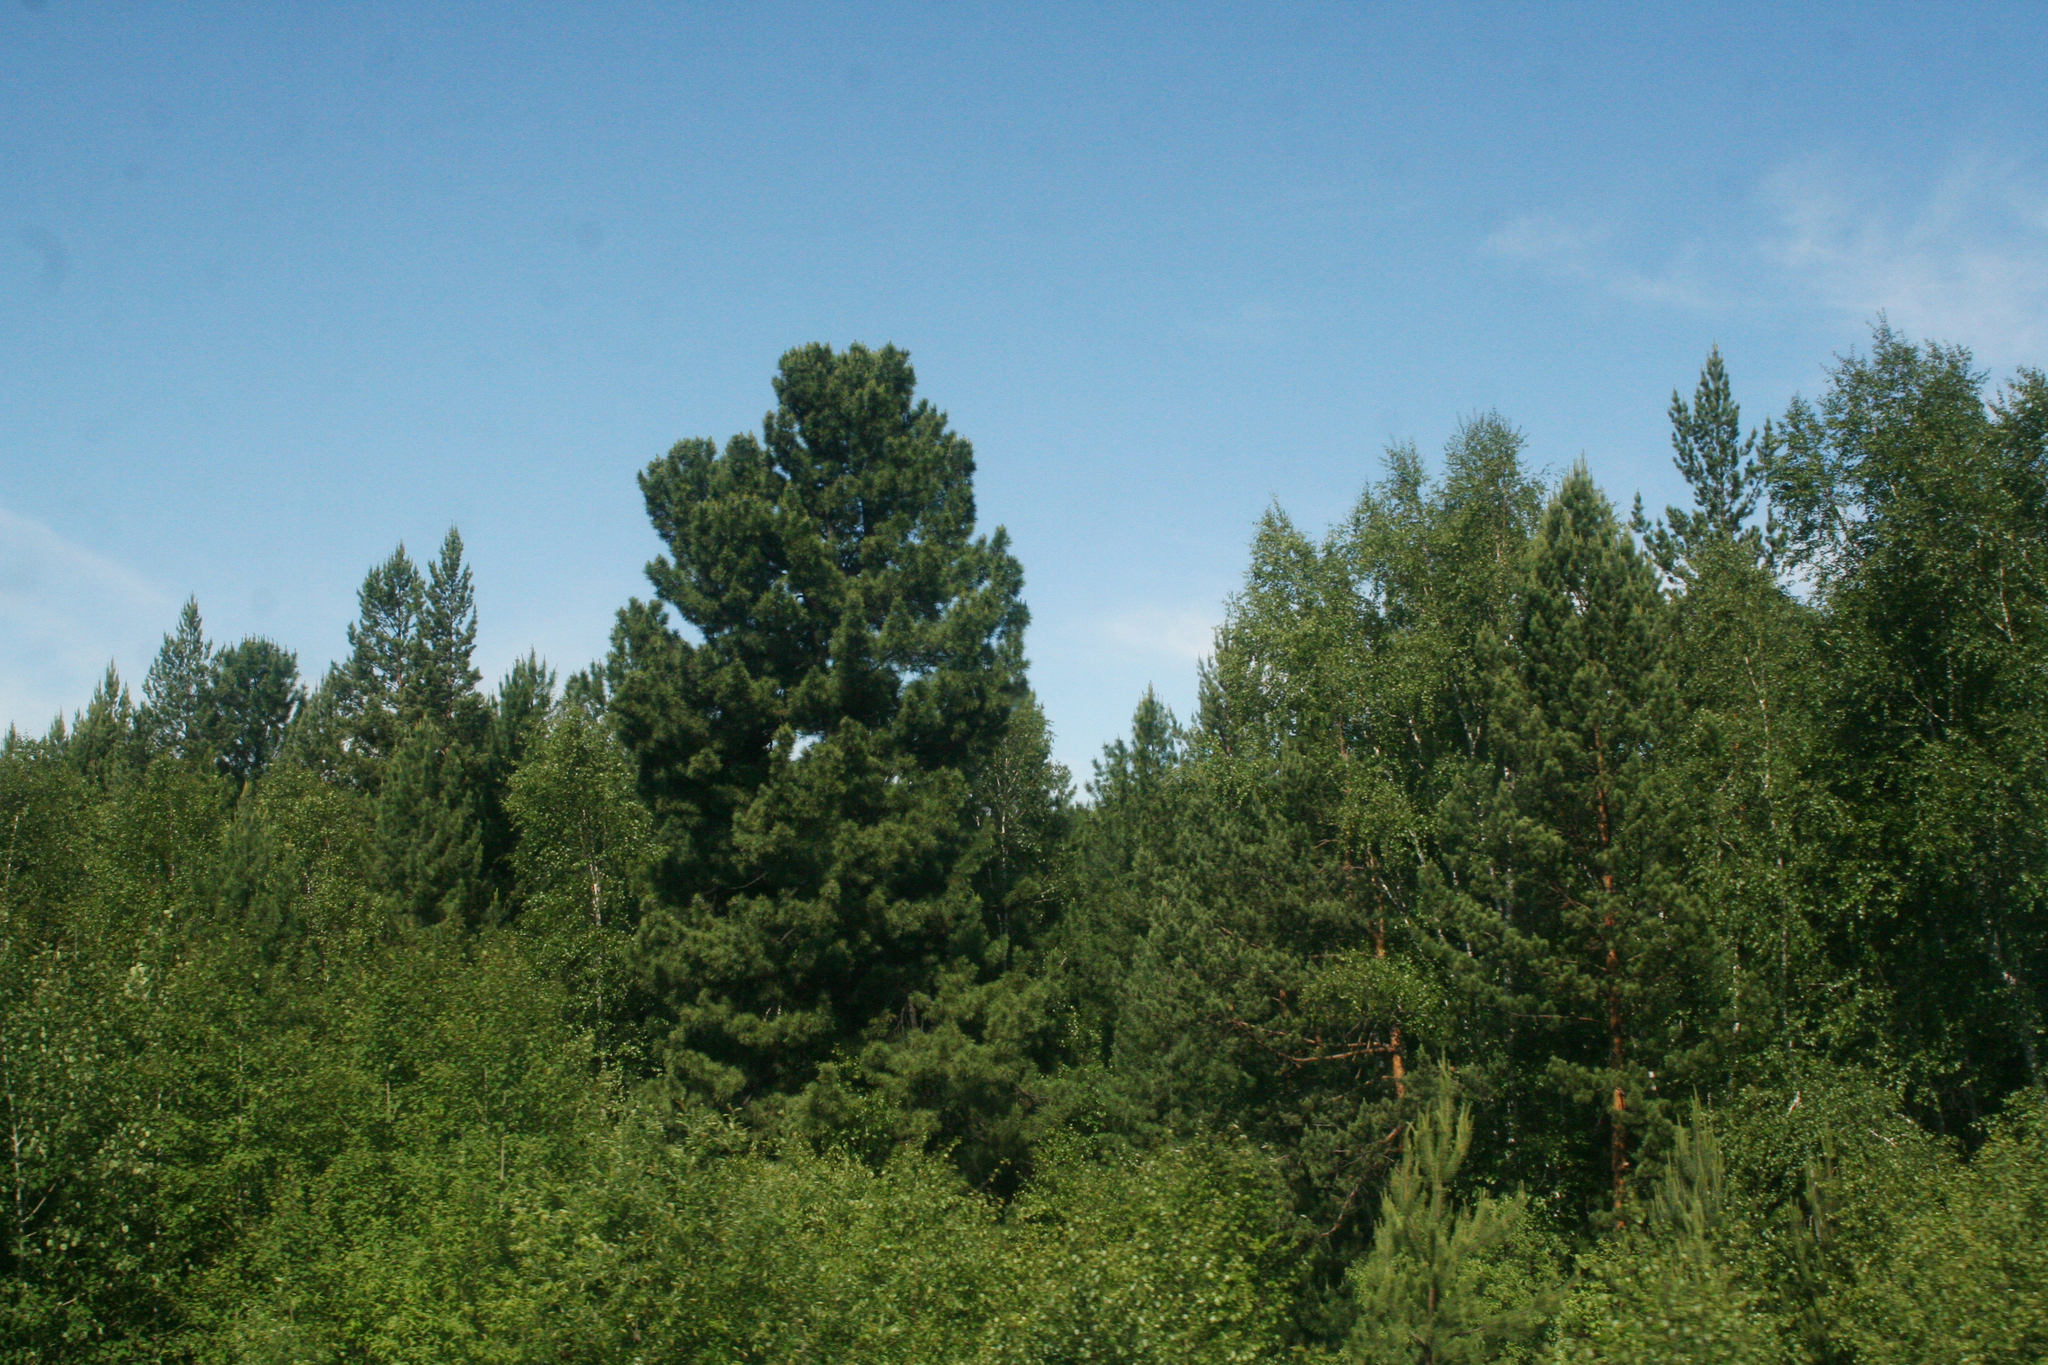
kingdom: Plantae
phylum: Tracheophyta
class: Pinopsida
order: Pinales
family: Pinaceae
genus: Pinus
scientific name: Pinus sibirica
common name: Siberian pine
